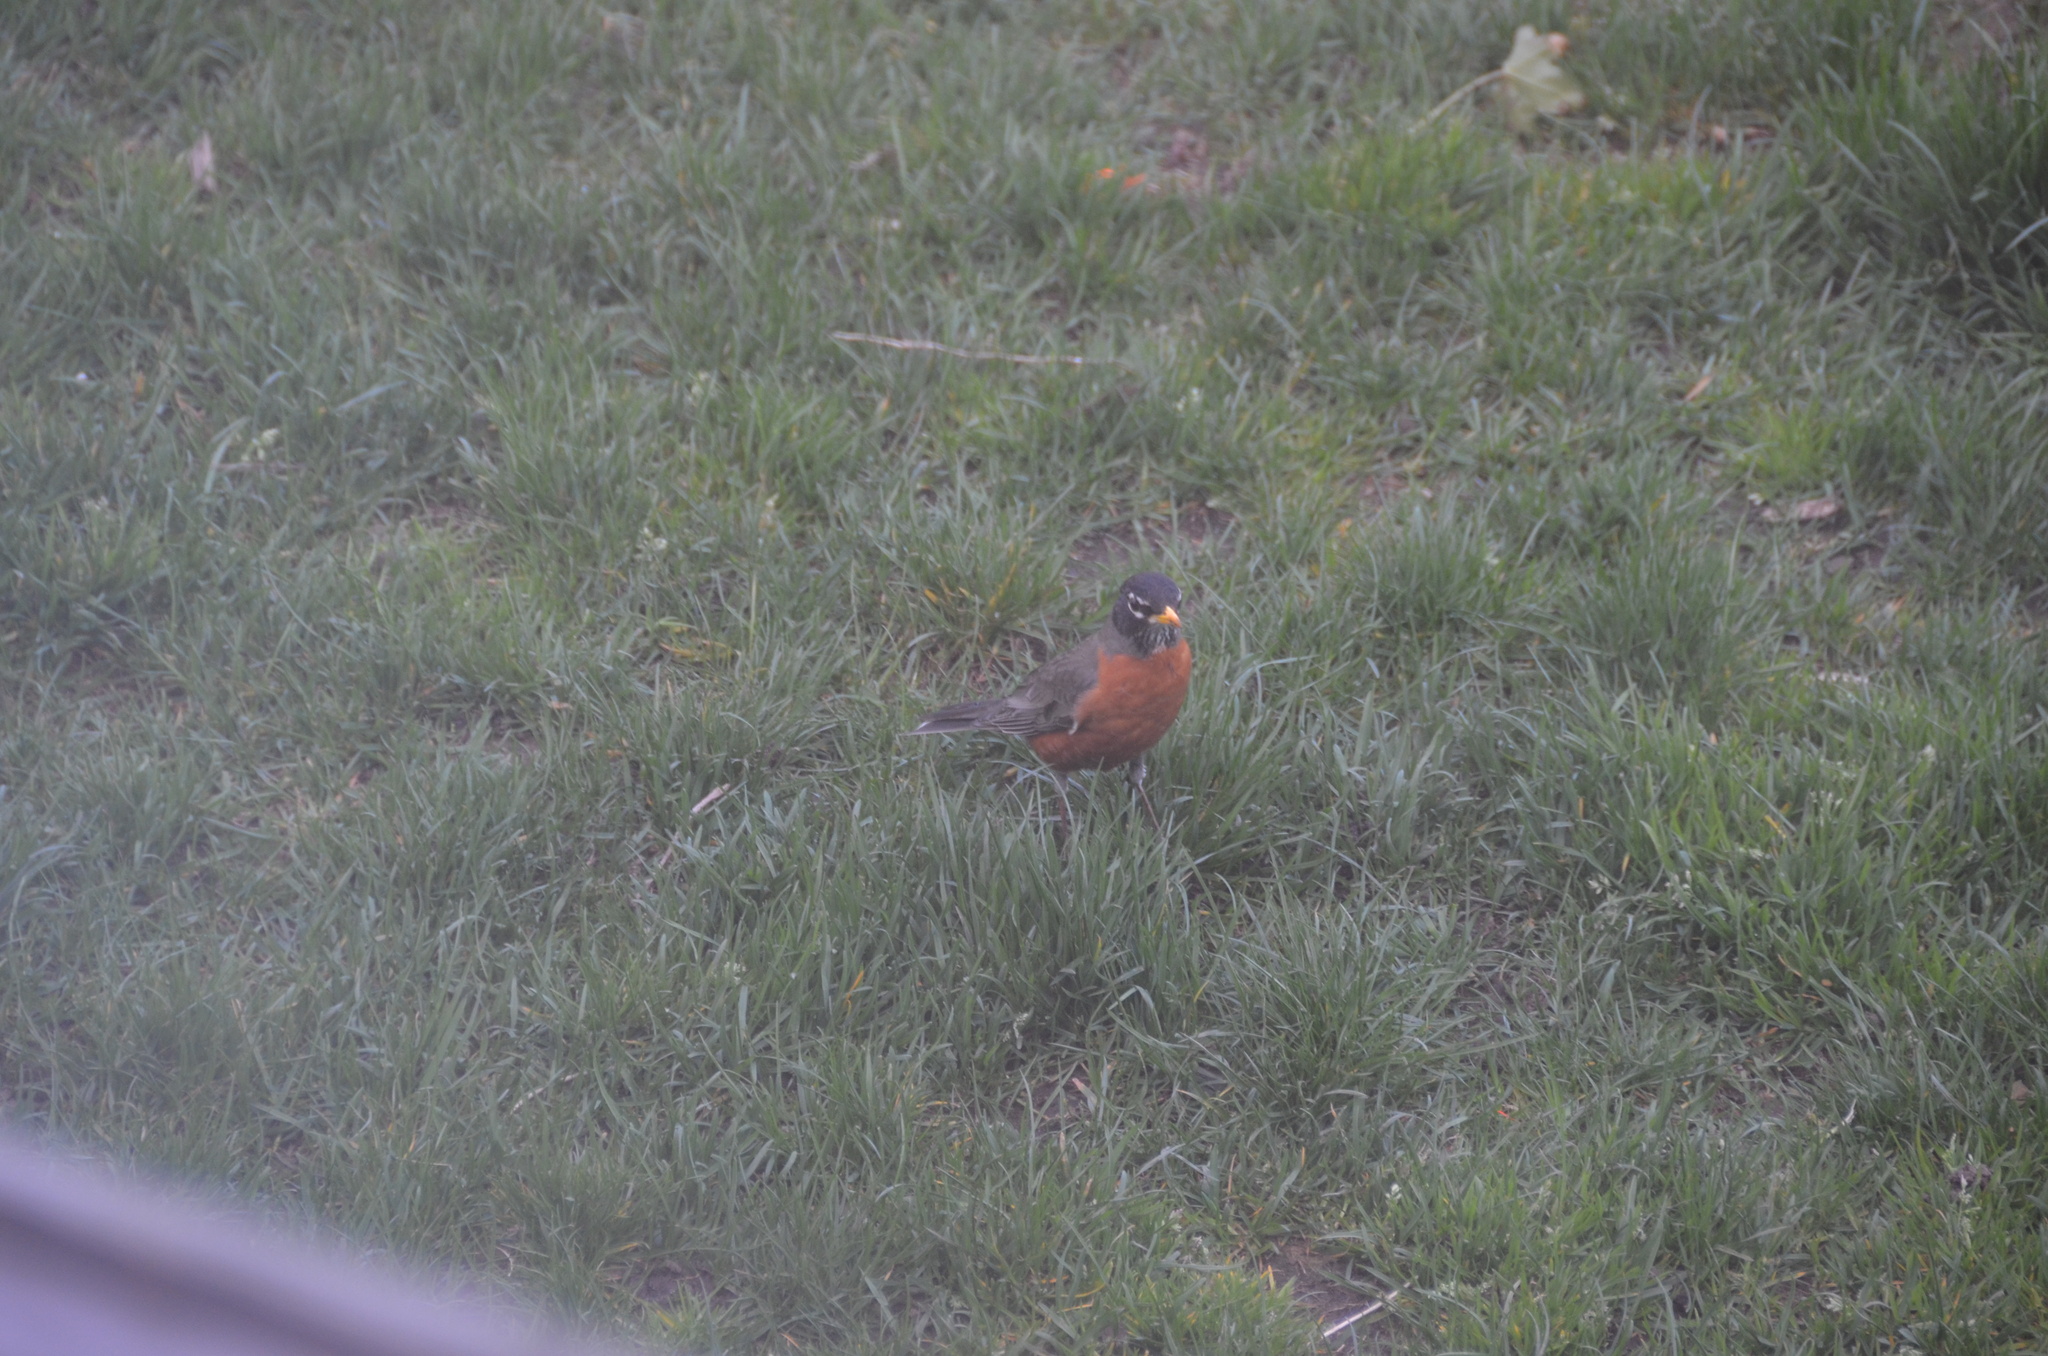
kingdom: Animalia
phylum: Chordata
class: Aves
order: Passeriformes
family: Turdidae
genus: Turdus
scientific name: Turdus migratorius
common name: American robin
